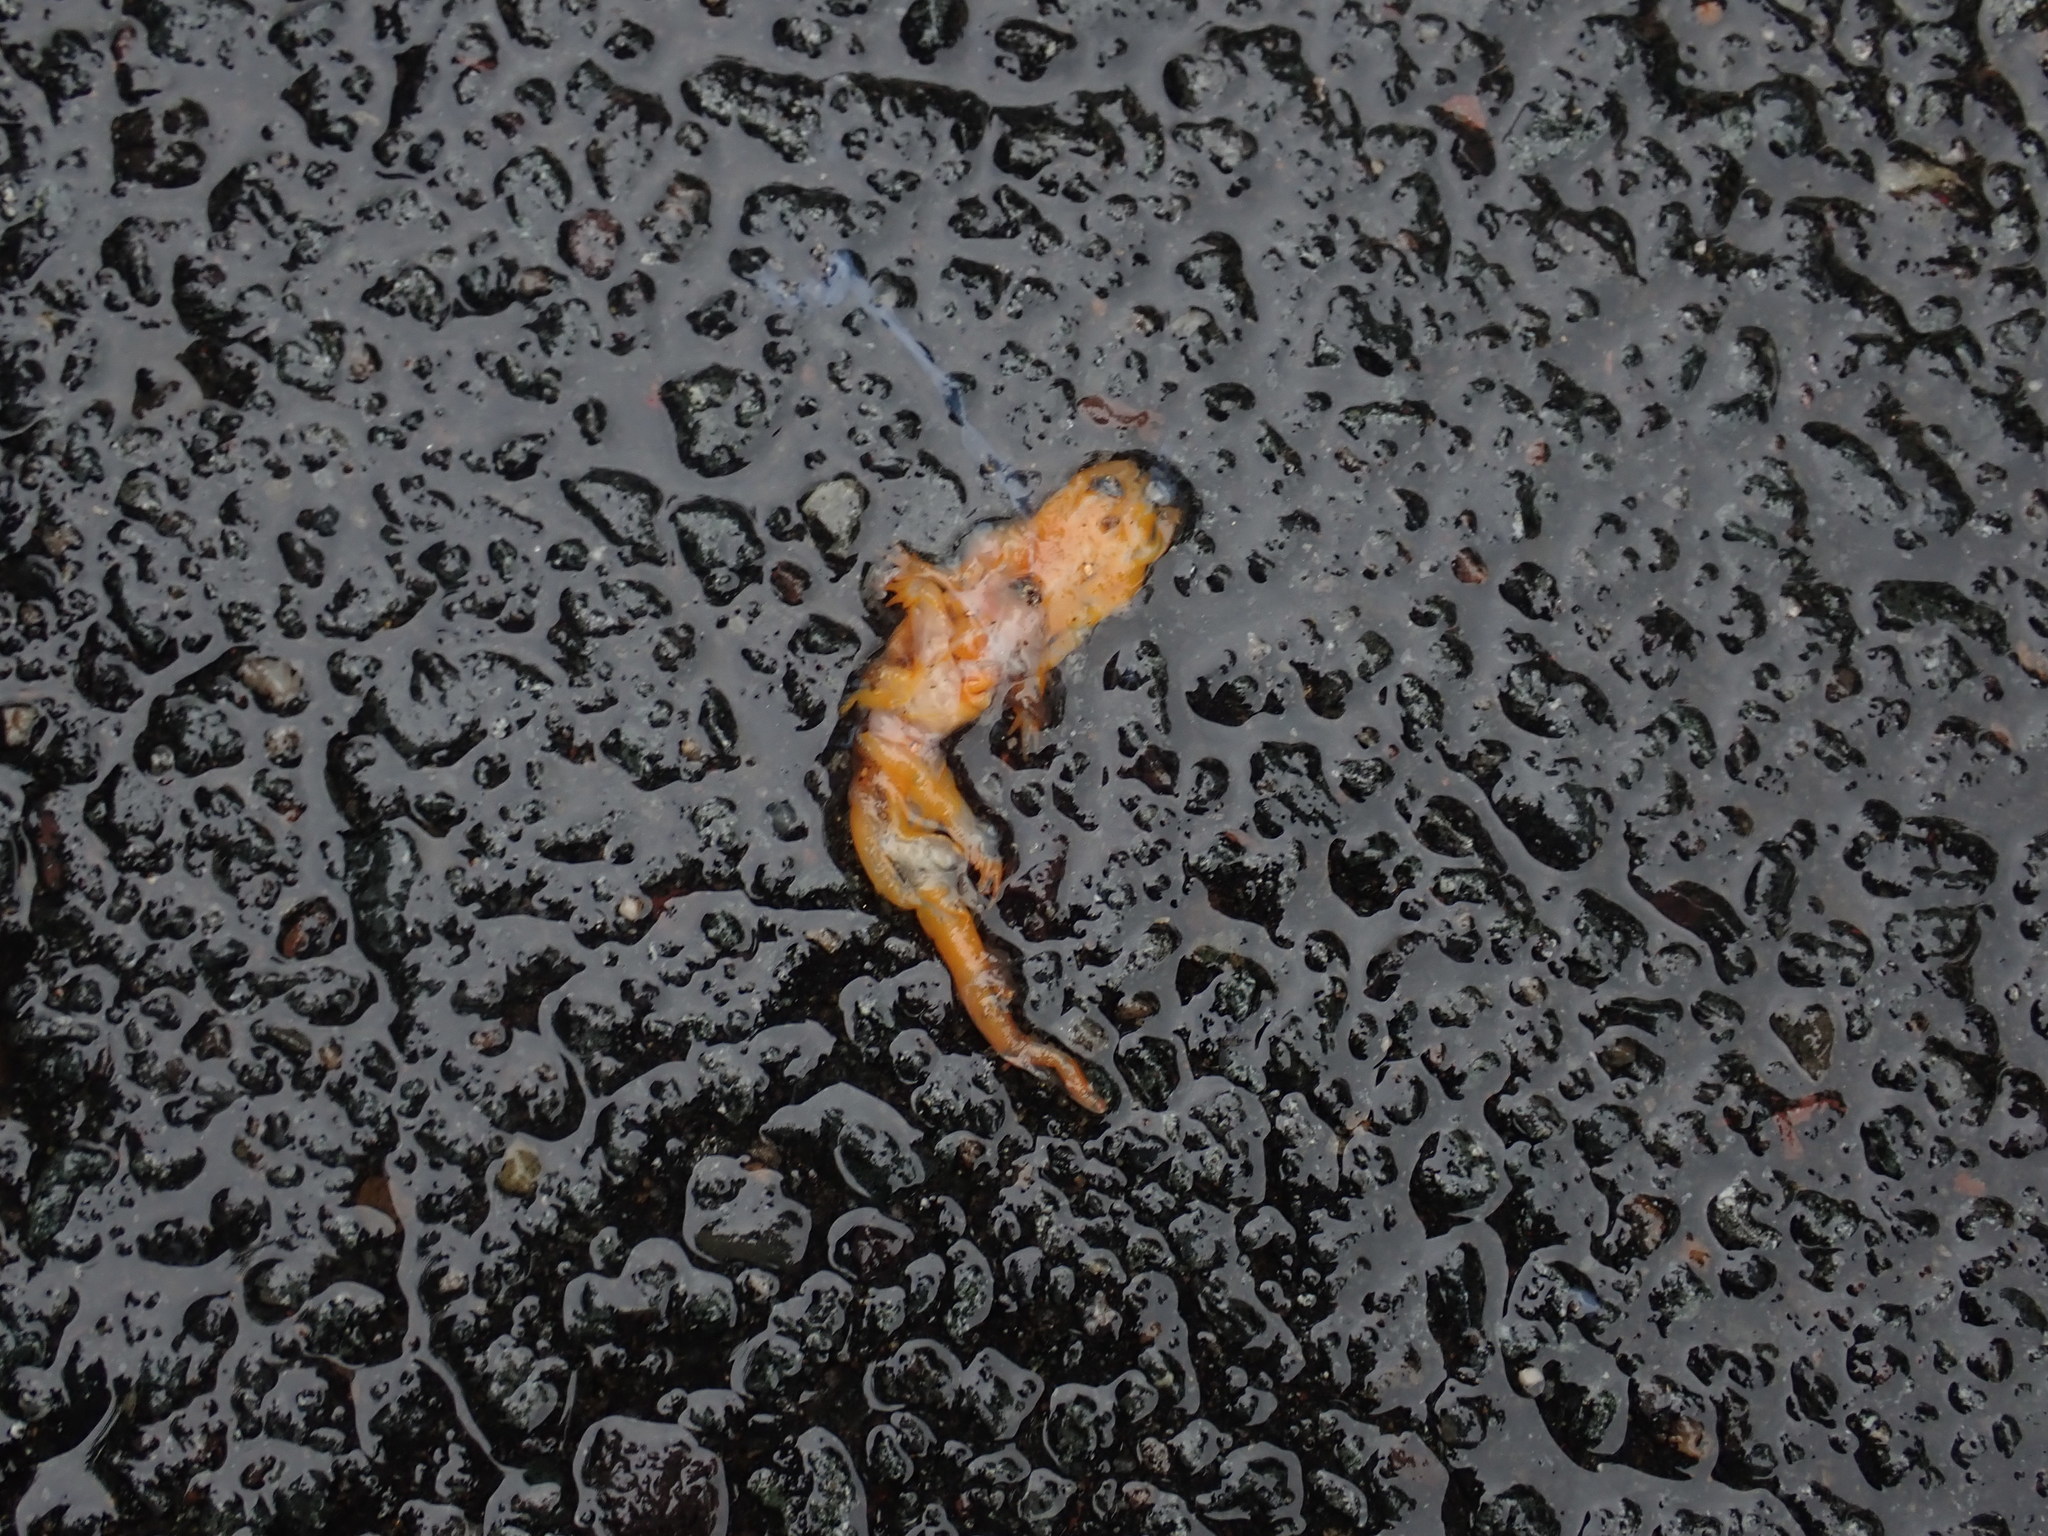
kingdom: Animalia
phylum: Chordata
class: Amphibia
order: Caudata
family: Salamandridae
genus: Notophthalmus
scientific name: Notophthalmus viridescens
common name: Eastern newt
